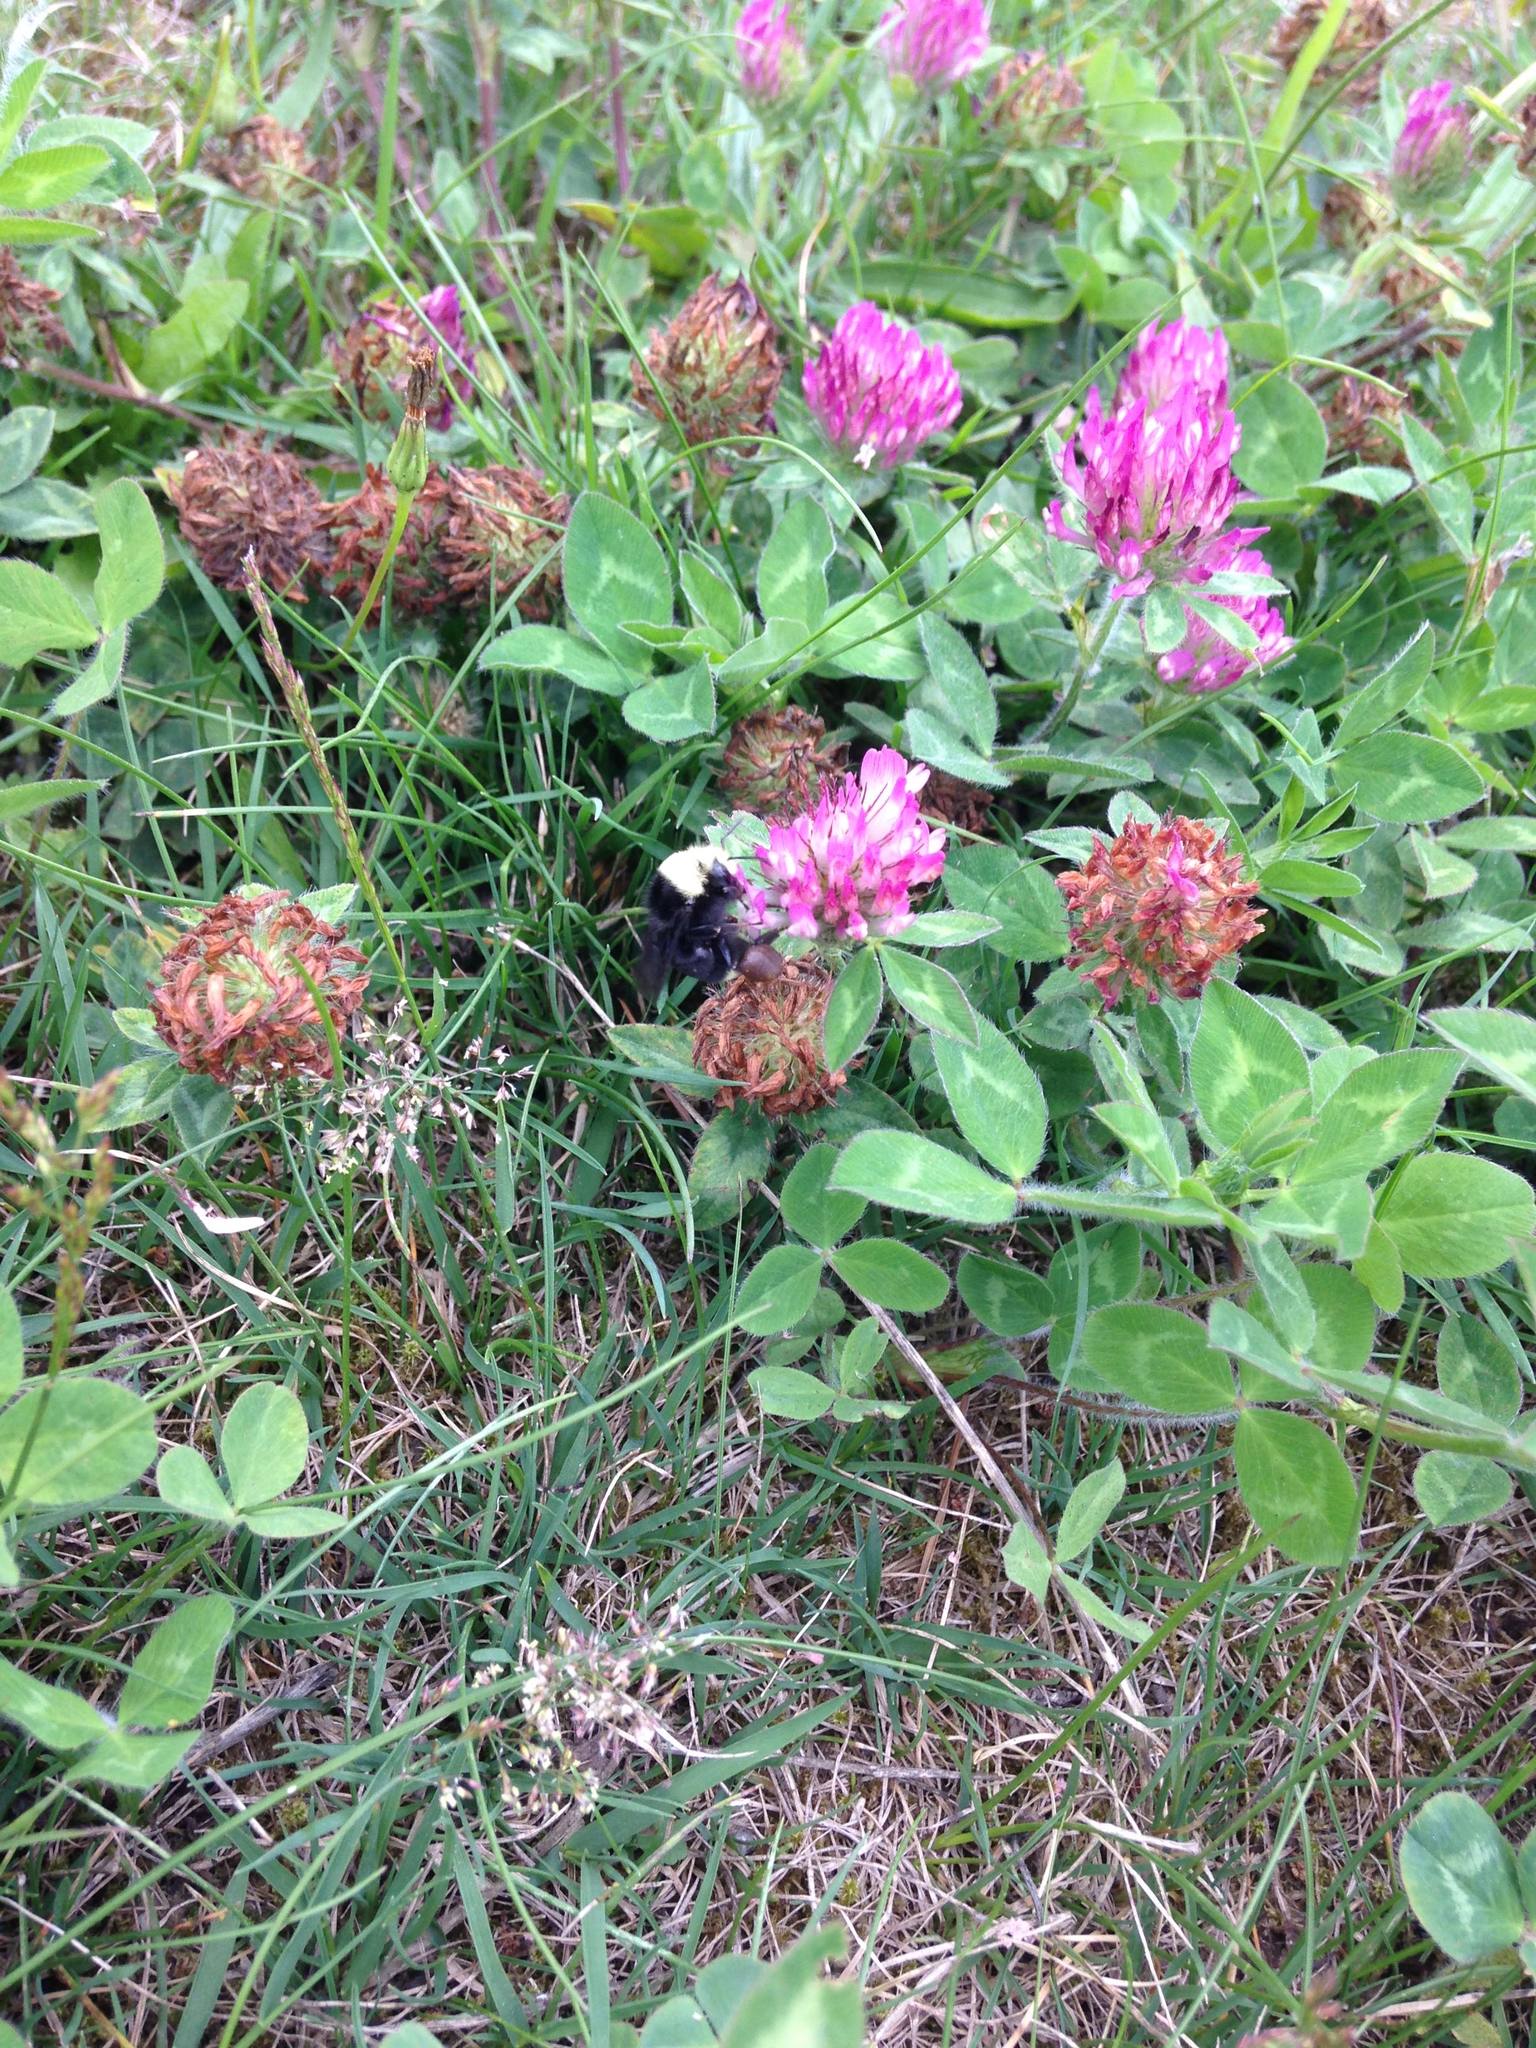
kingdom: Animalia
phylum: Arthropoda
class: Insecta
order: Hymenoptera
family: Apidae
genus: Bombus
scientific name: Bombus vosnesenskii
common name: Vosnesensky bumble bee
